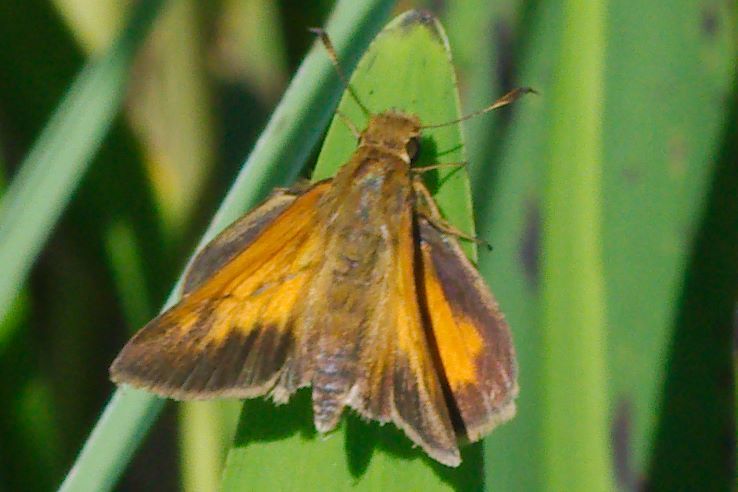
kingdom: Animalia
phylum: Arthropoda
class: Insecta
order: Lepidoptera
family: Hesperiidae
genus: Poanes
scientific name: Poanes aaroni
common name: Aaron's skipper
